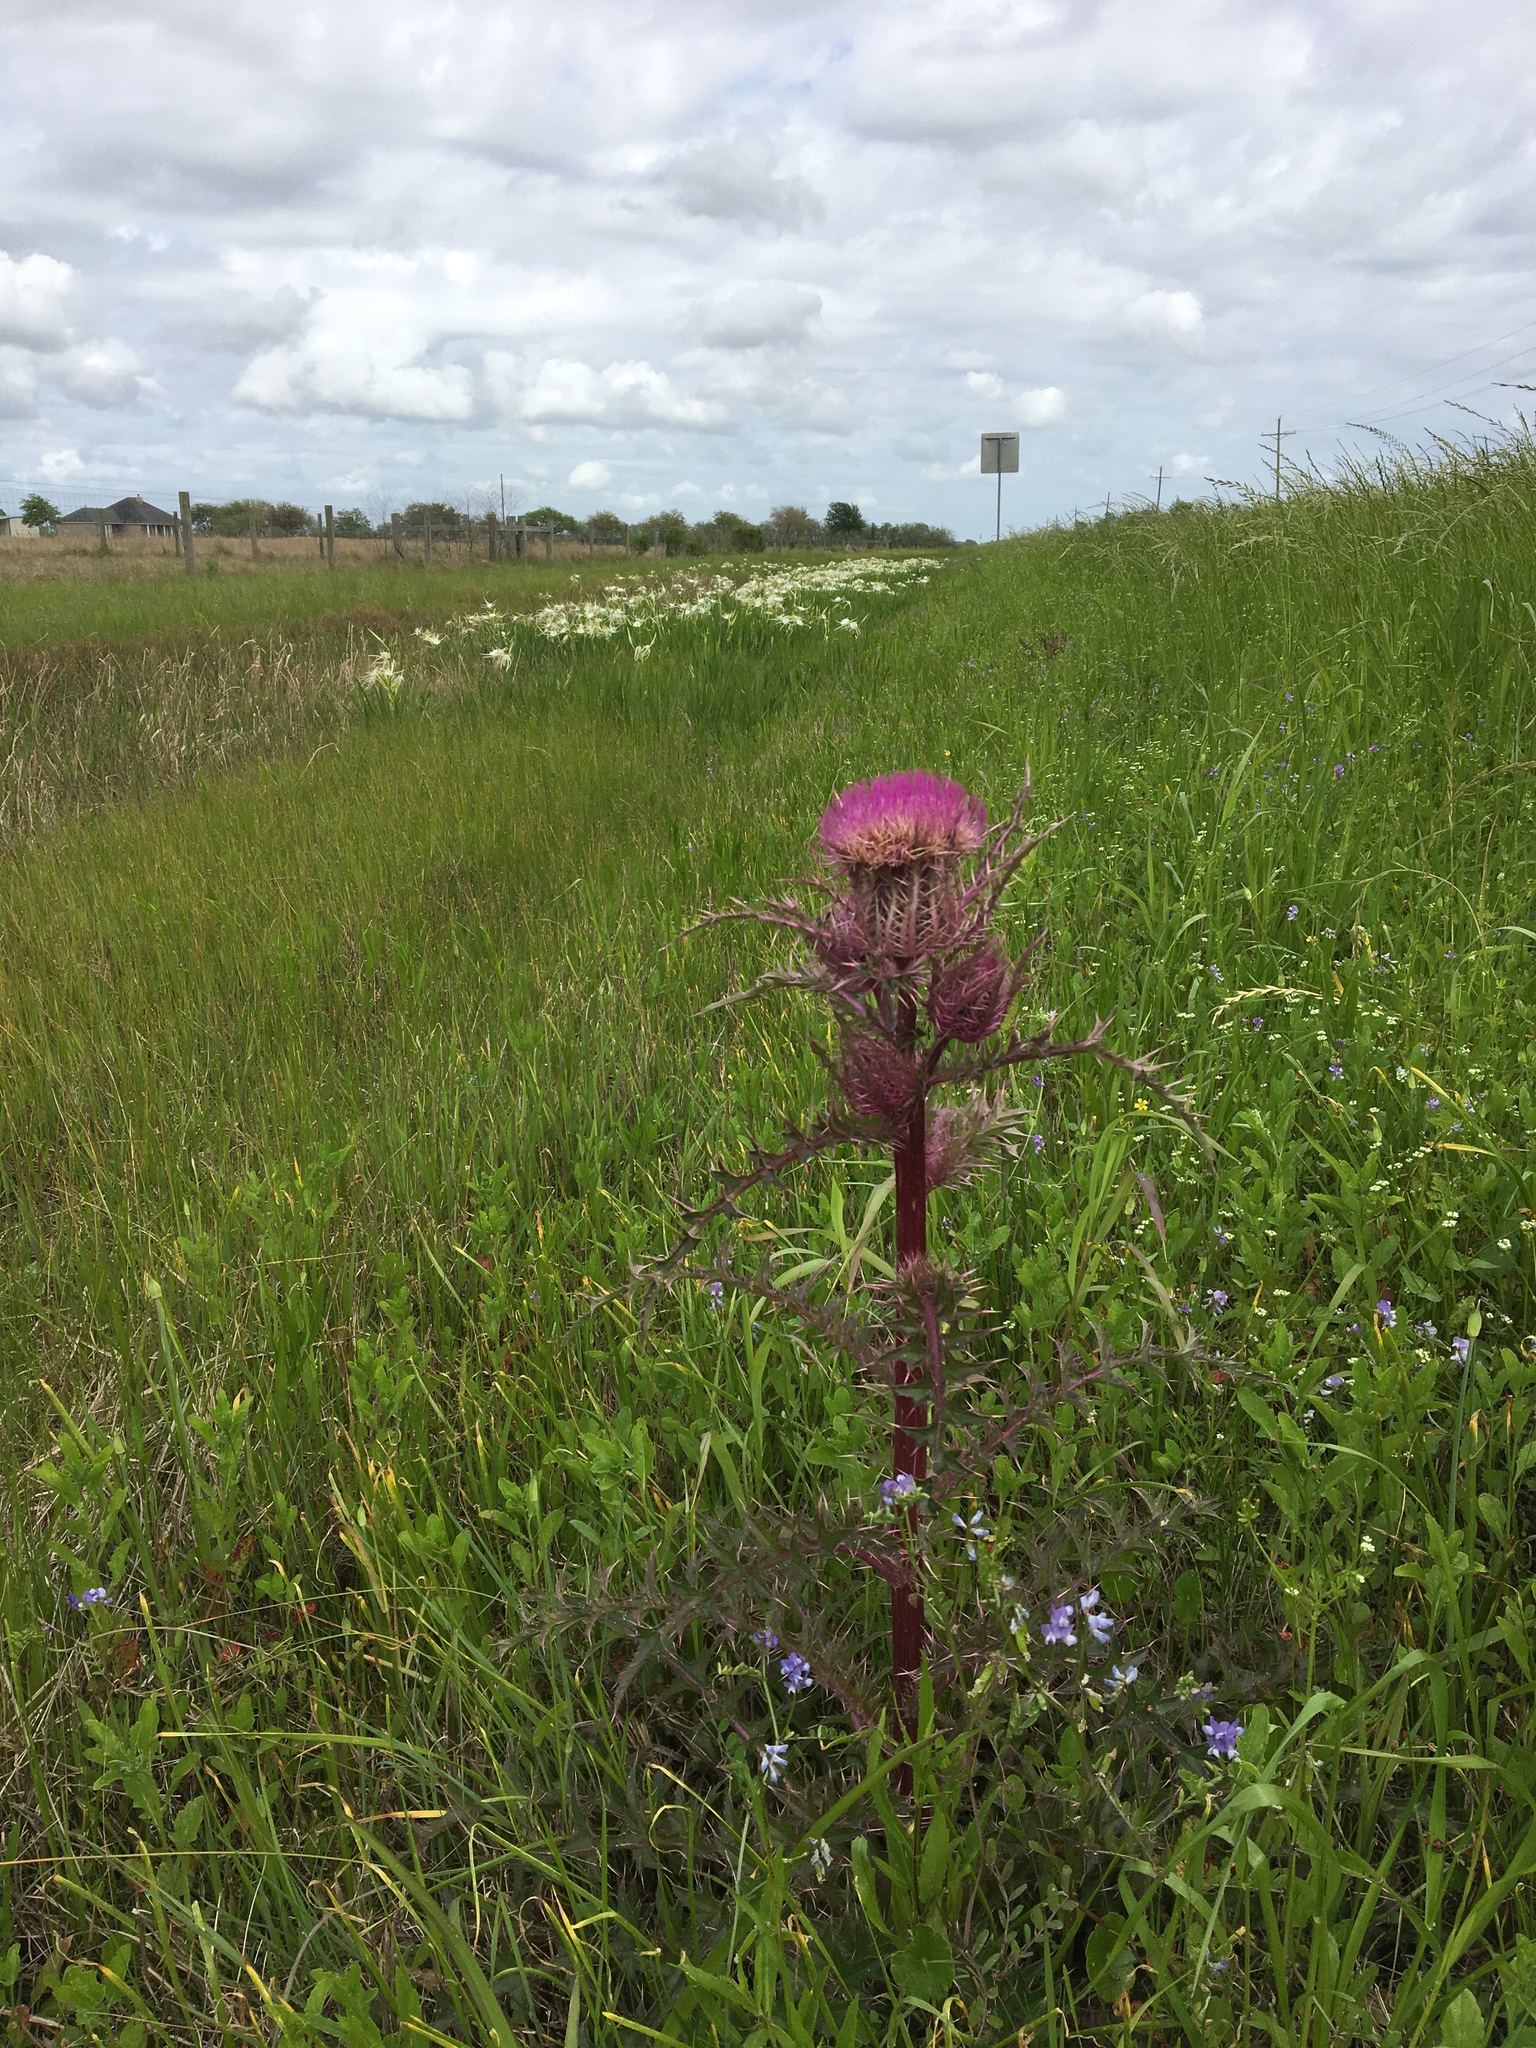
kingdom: Plantae
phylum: Tracheophyta
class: Magnoliopsida
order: Asterales
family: Asteraceae
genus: Cirsium
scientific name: Cirsium horridulum
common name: Bristly thistle
